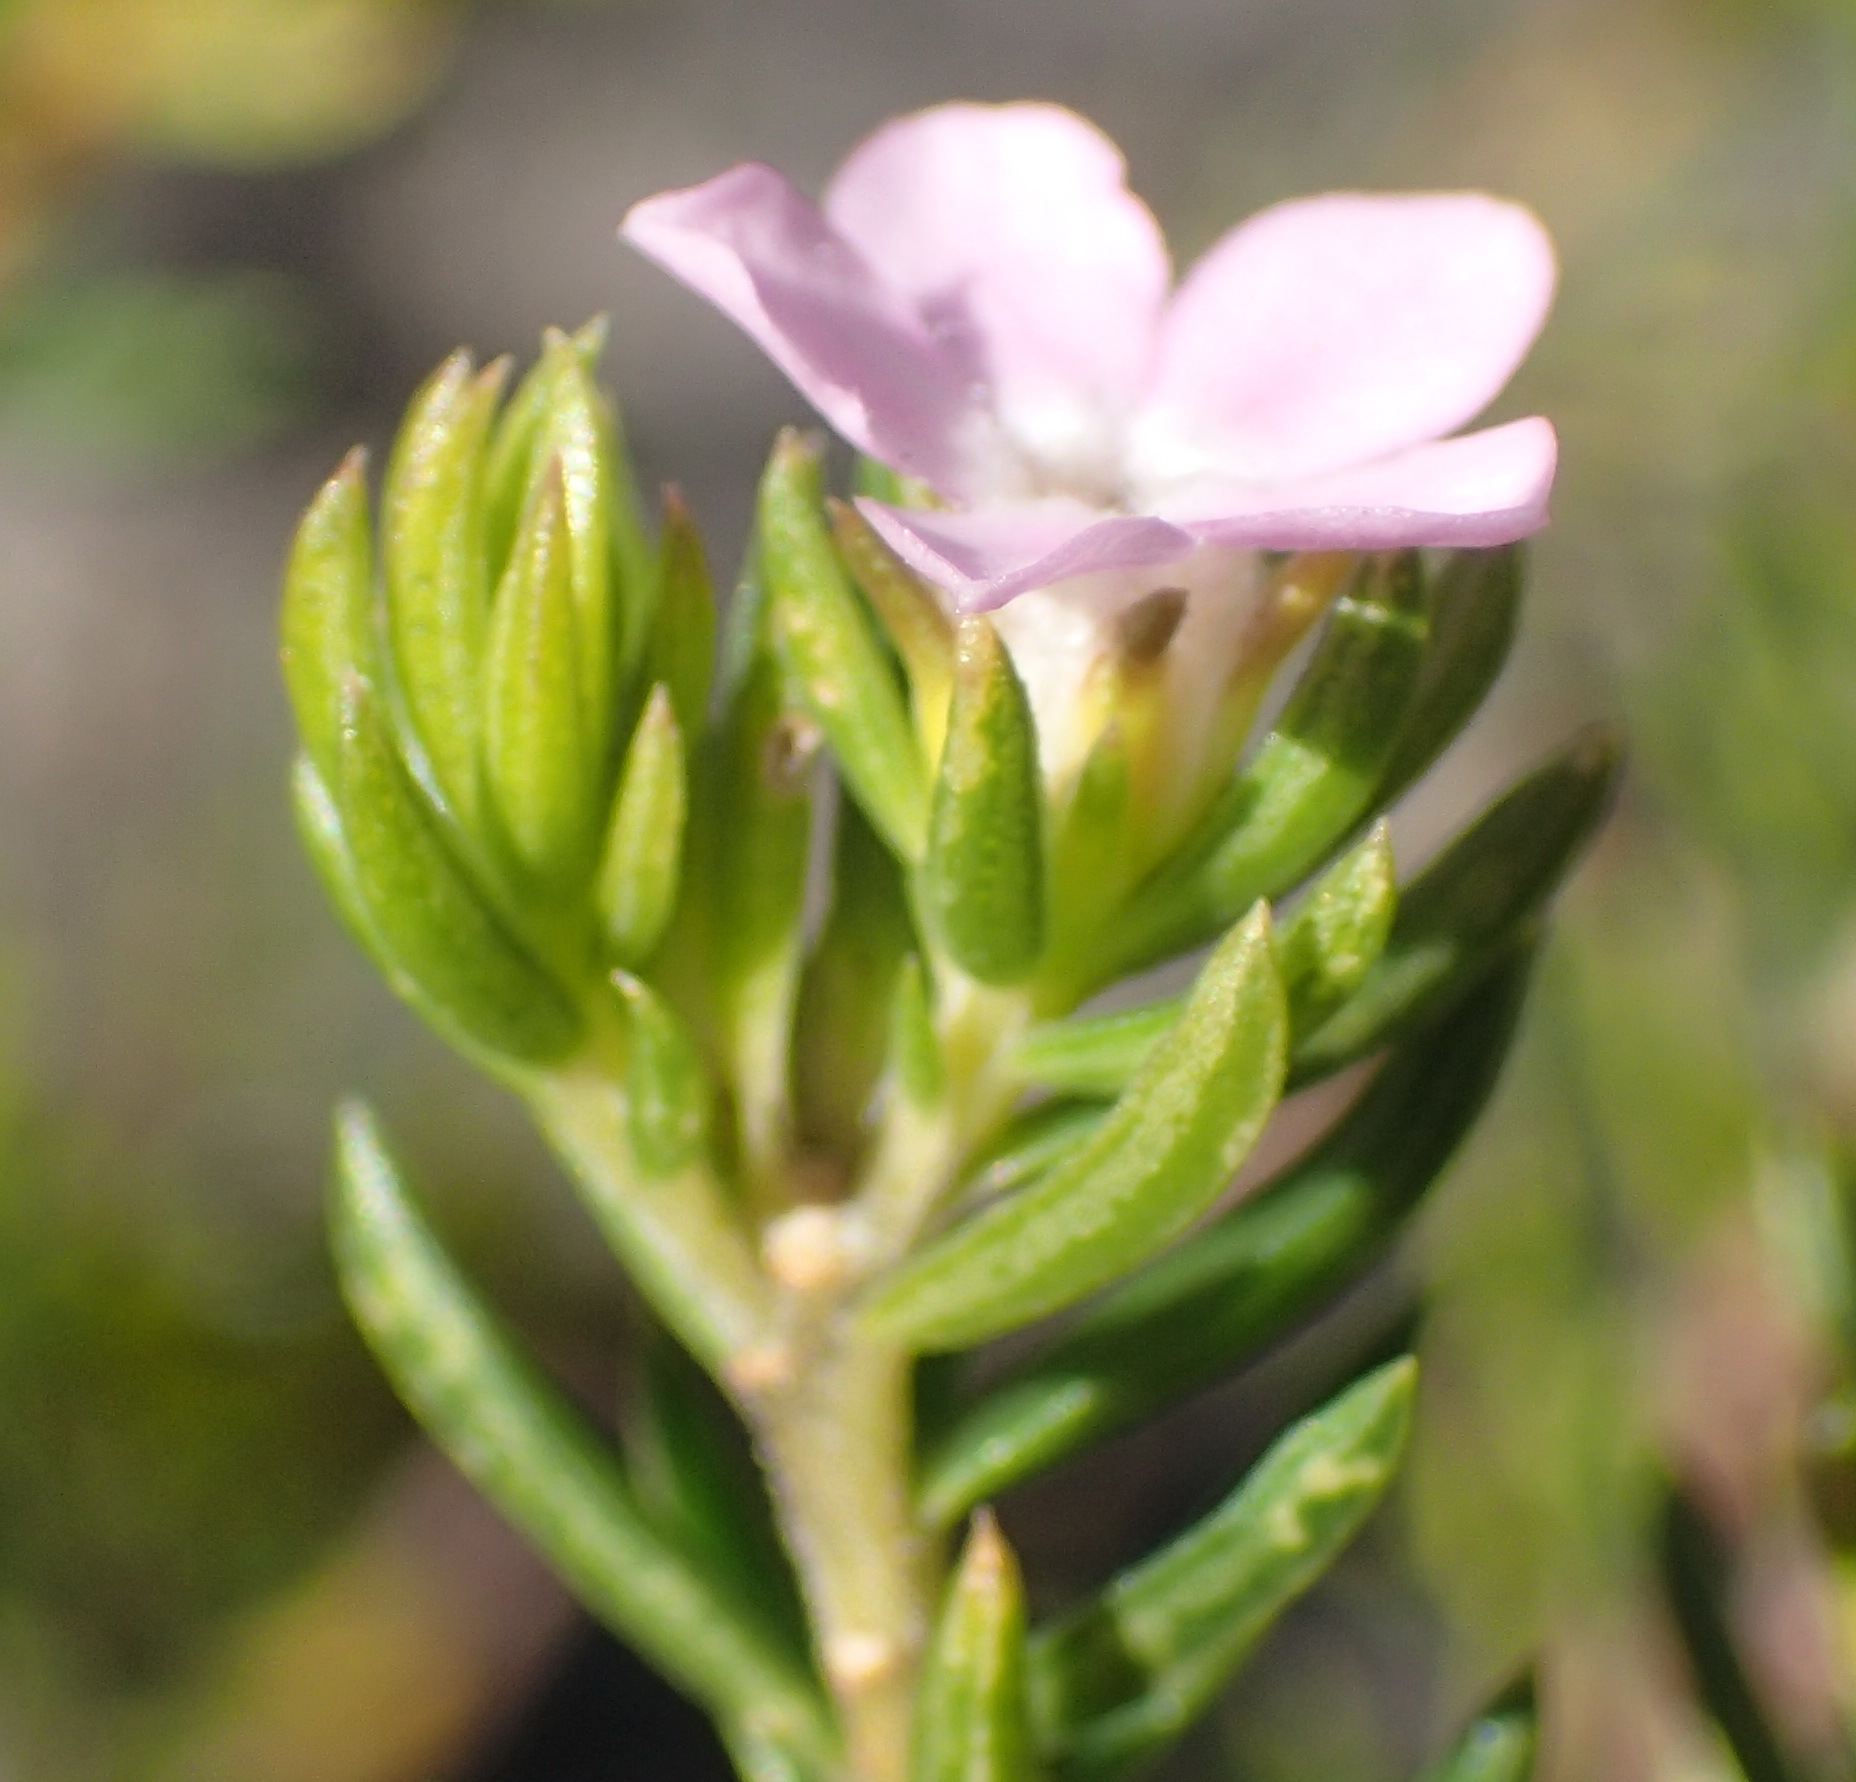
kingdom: Plantae
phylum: Tracheophyta
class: Magnoliopsida
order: Sapindales
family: Rutaceae
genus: Acmadenia
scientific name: Acmadenia alternifolia
